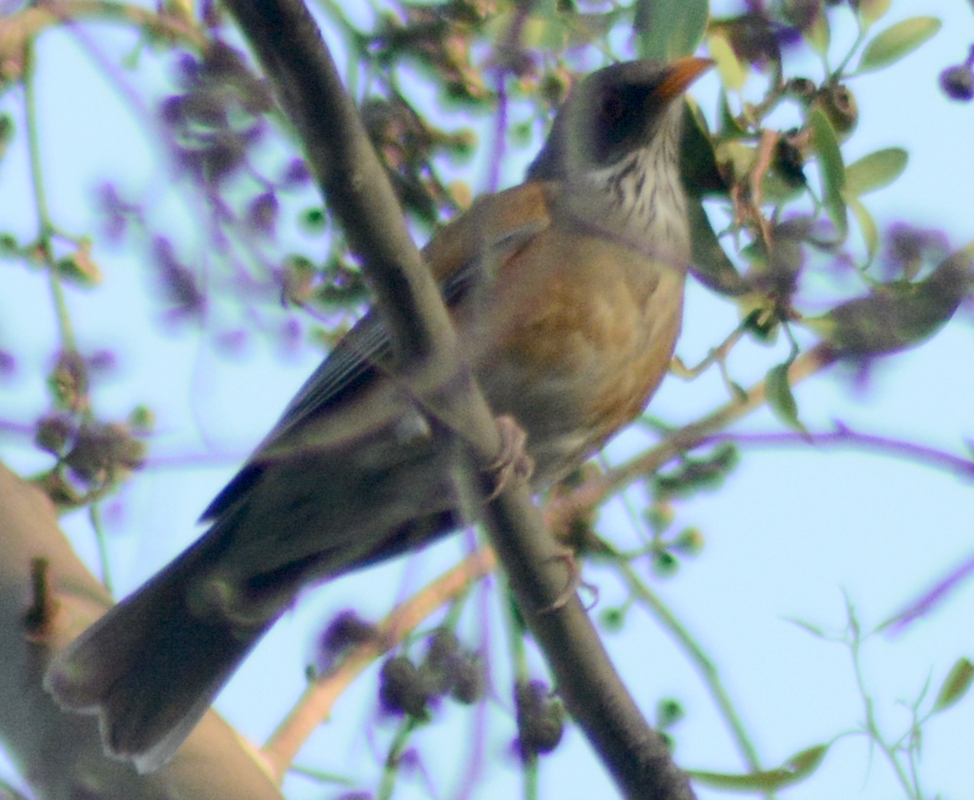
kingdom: Animalia
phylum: Chordata
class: Aves
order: Passeriformes
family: Turdidae
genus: Turdus
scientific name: Turdus rufopalliatus
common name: Rufous-backed robin
